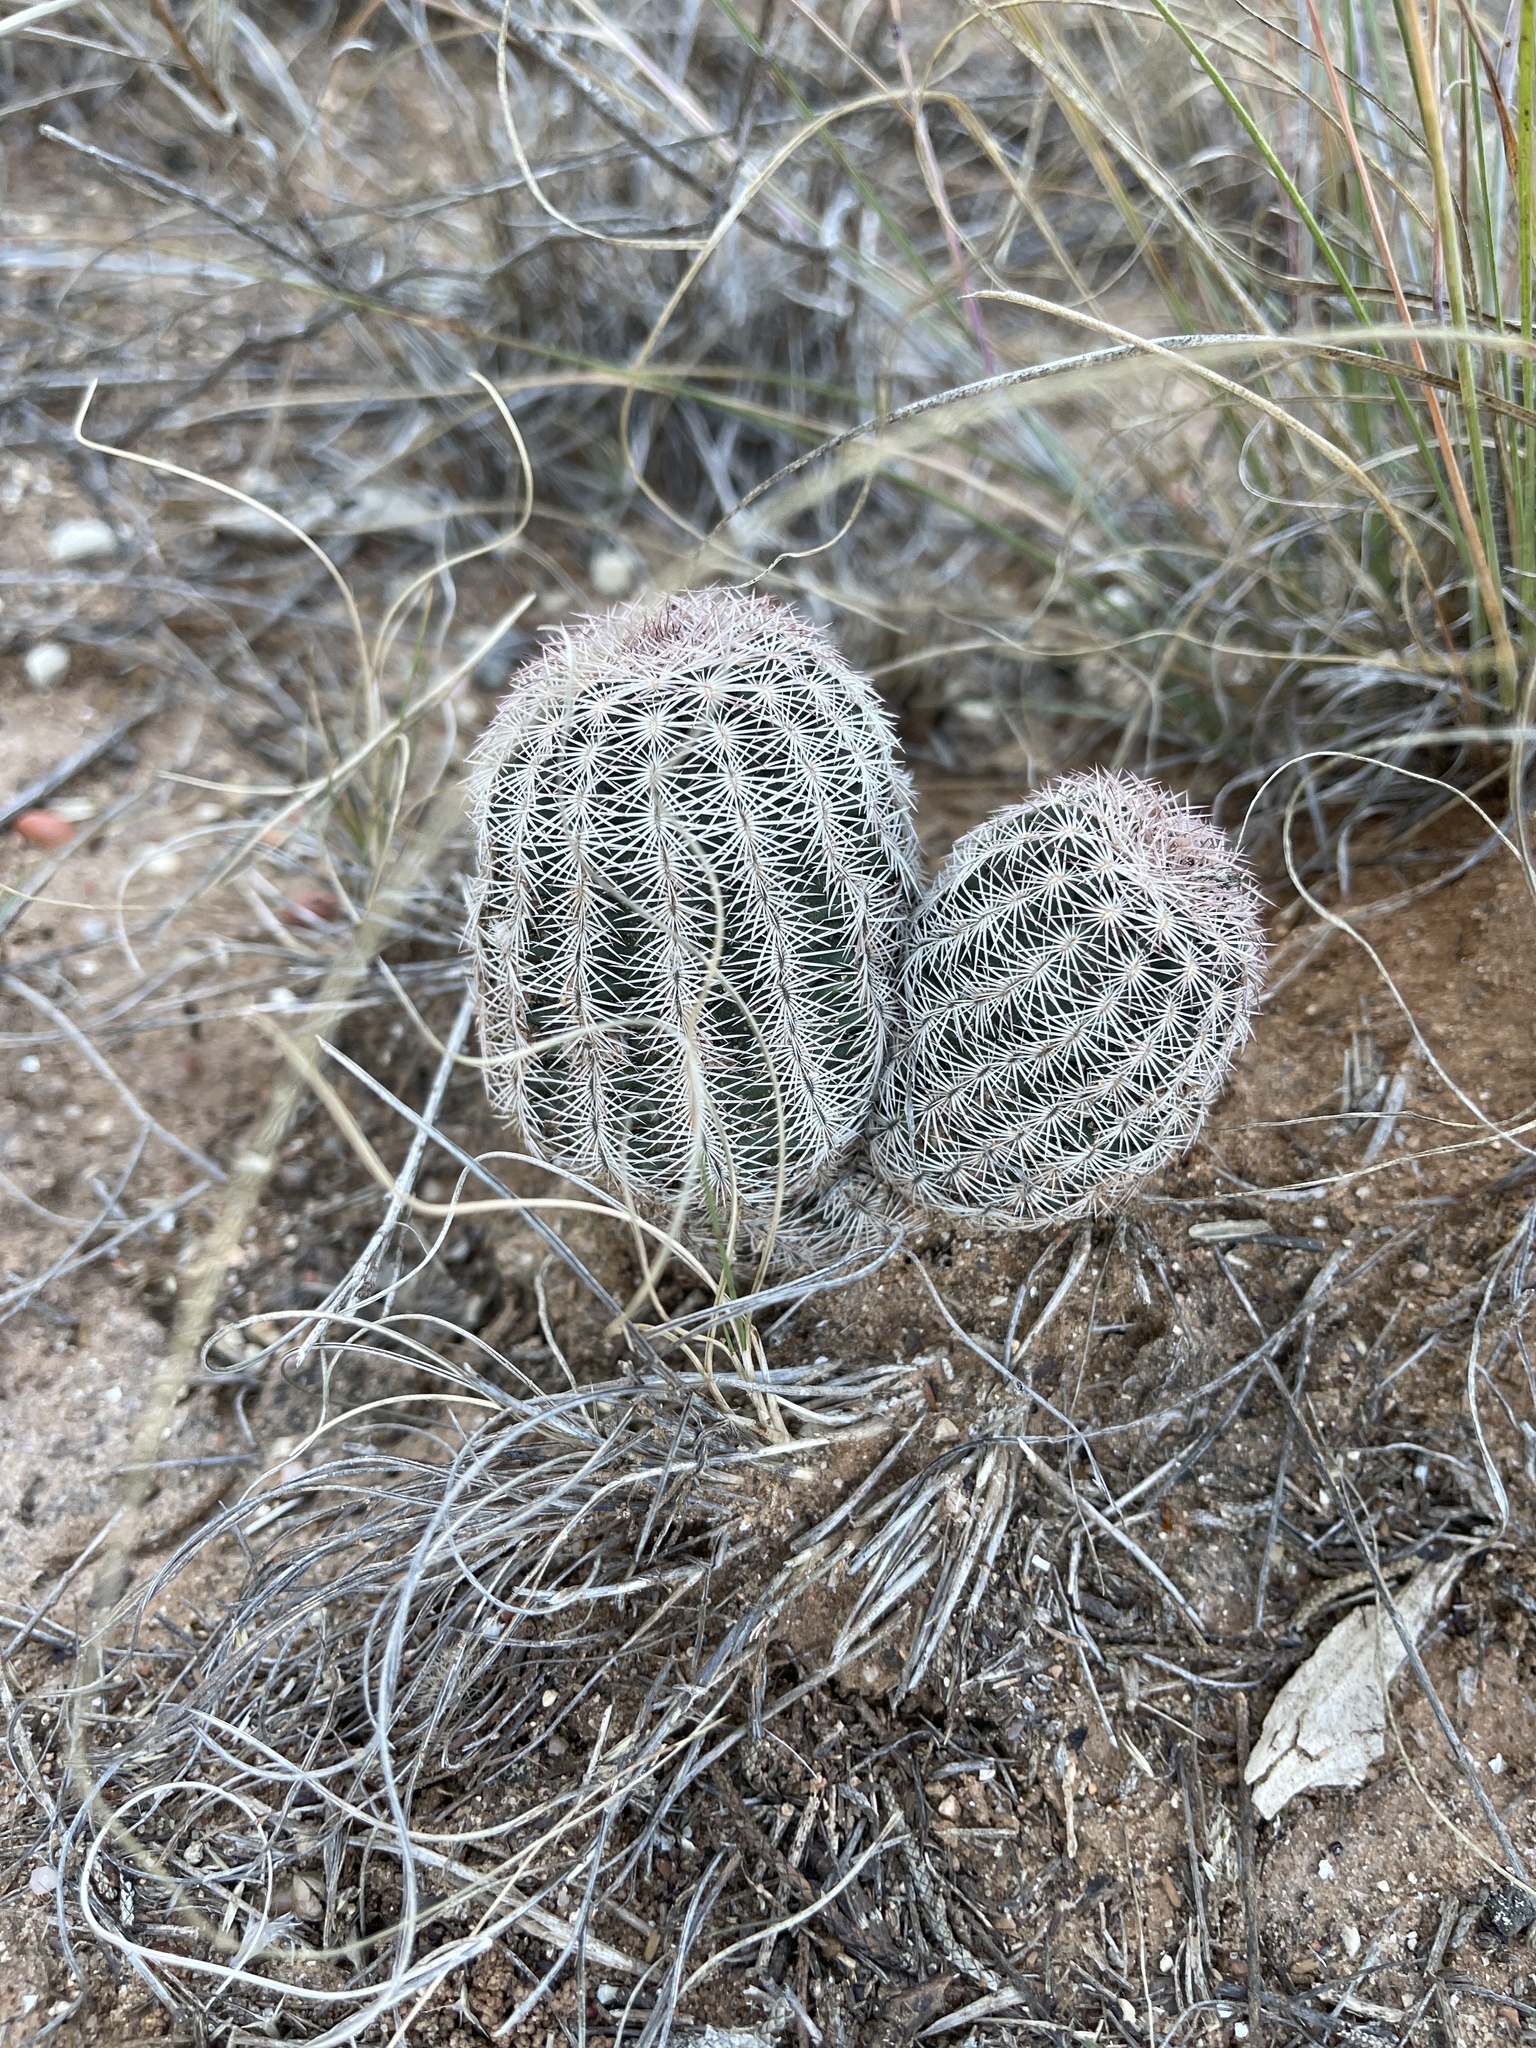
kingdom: Plantae
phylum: Tracheophyta
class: Magnoliopsida
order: Caryophyllales
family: Cactaceae
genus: Echinocereus
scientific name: Echinocereus reichenbachii
